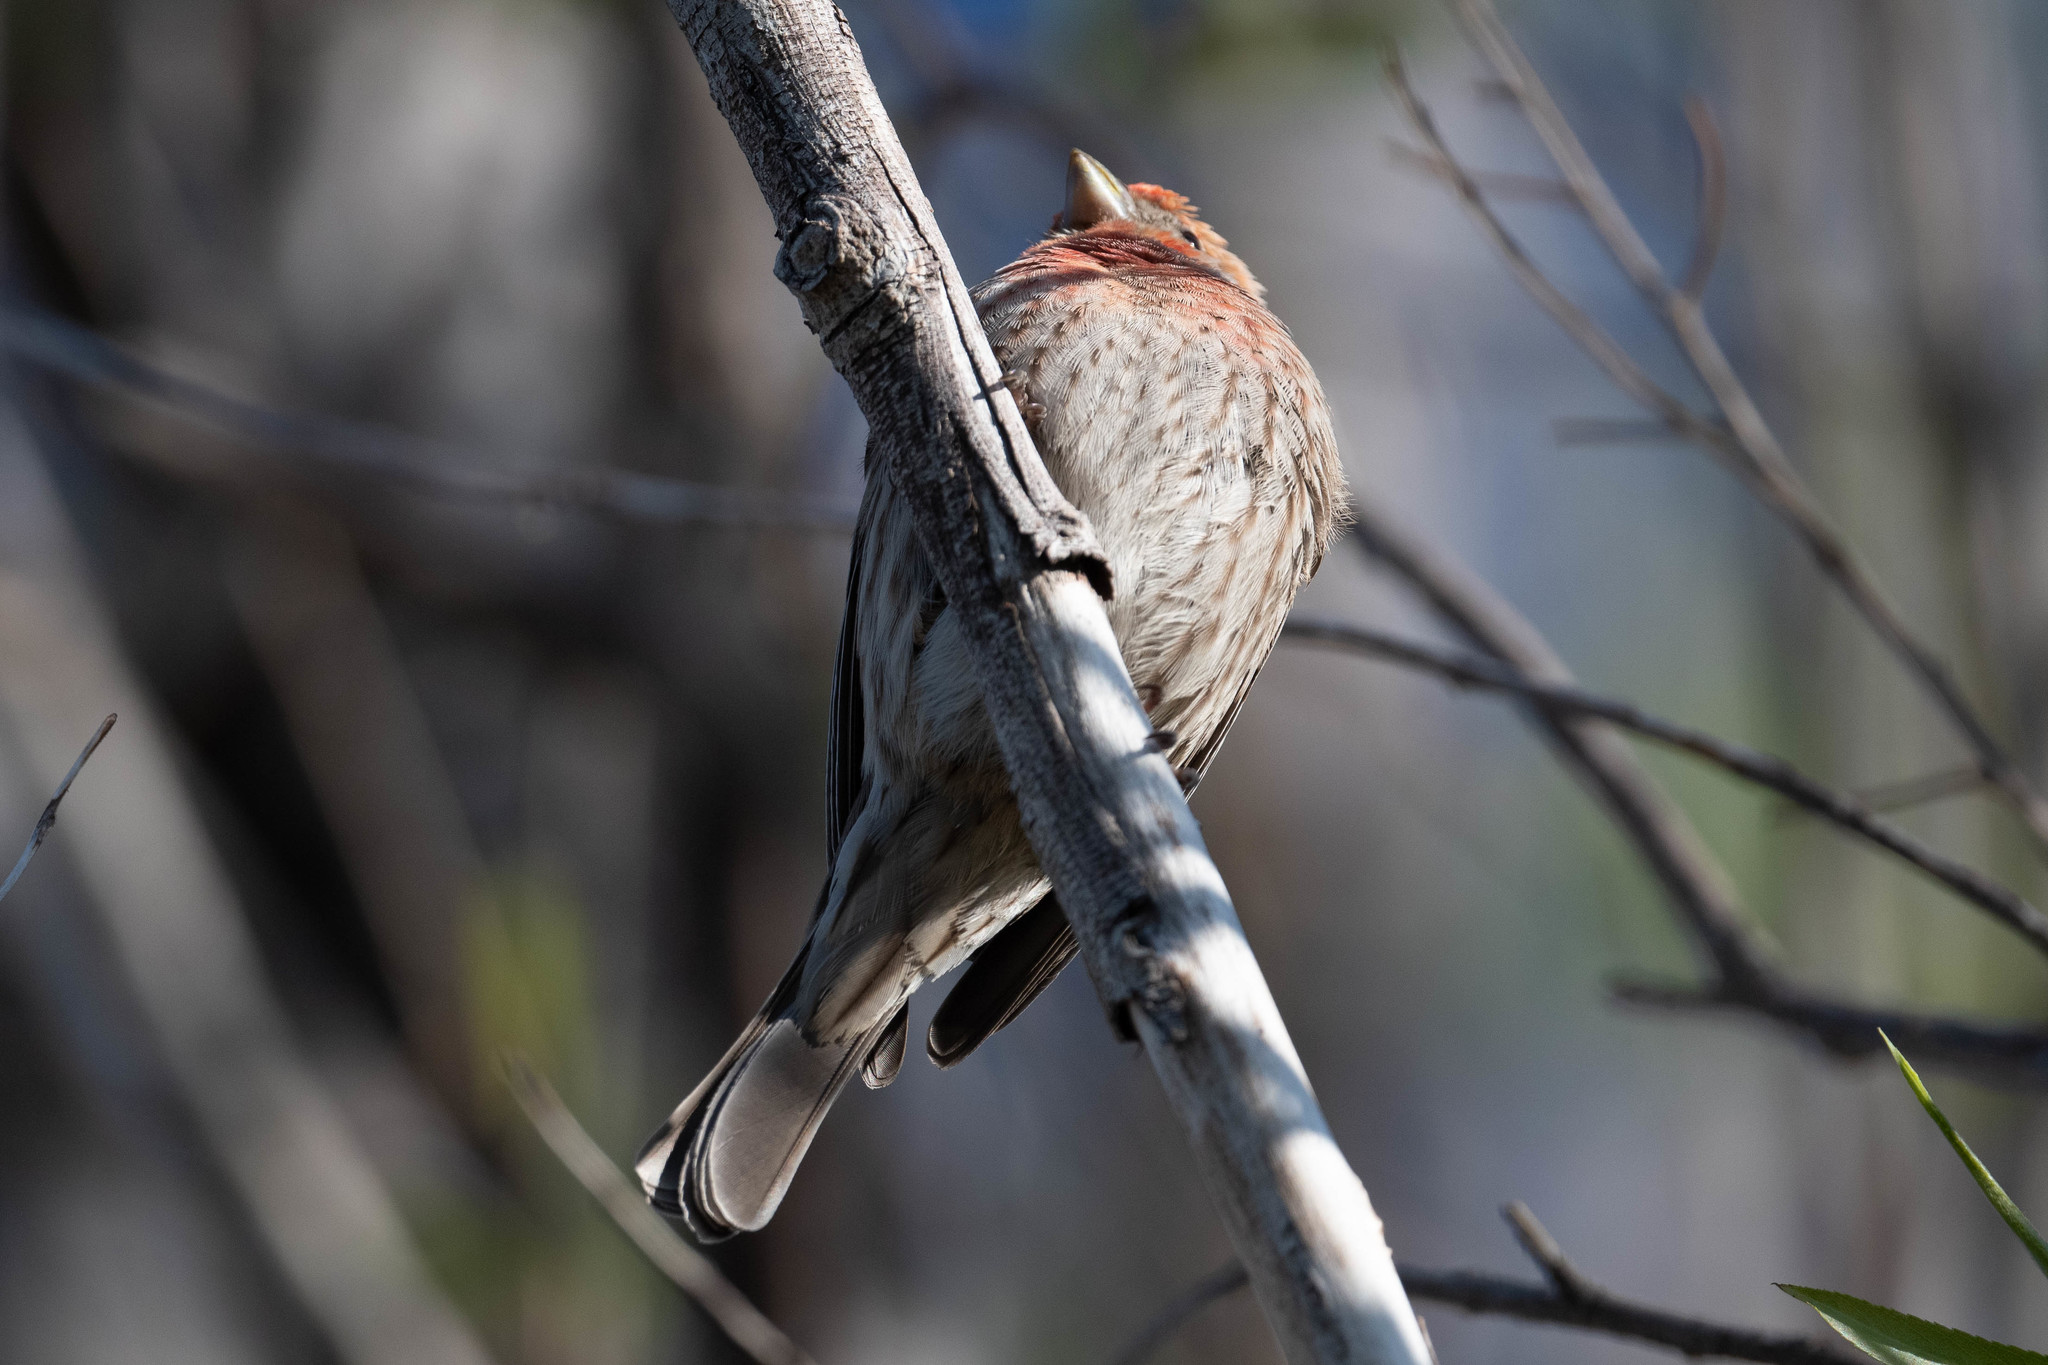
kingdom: Animalia
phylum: Chordata
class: Aves
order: Passeriformes
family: Fringillidae
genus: Haemorhous
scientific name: Haemorhous mexicanus
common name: House finch
